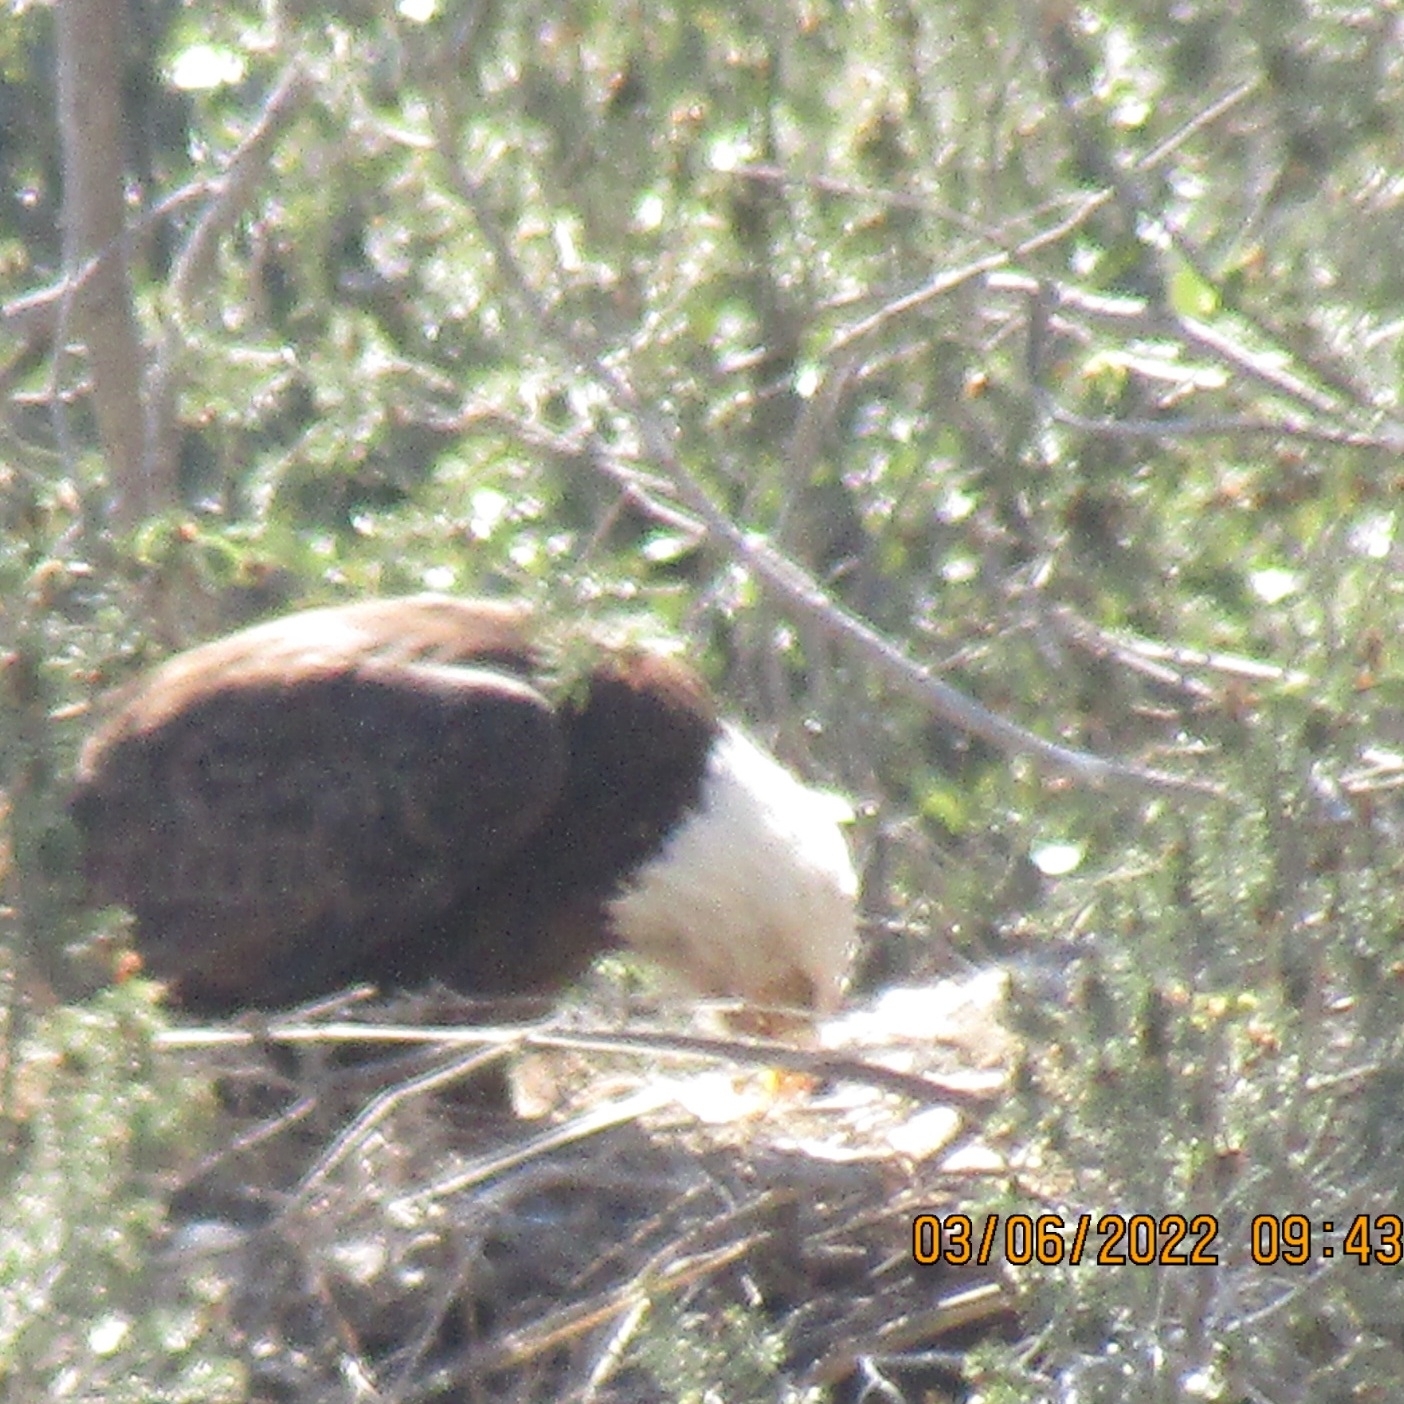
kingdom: Animalia
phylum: Chordata
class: Aves
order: Accipitriformes
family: Accipitridae
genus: Haliaeetus
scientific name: Haliaeetus leucocephalus
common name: Bald eagle
